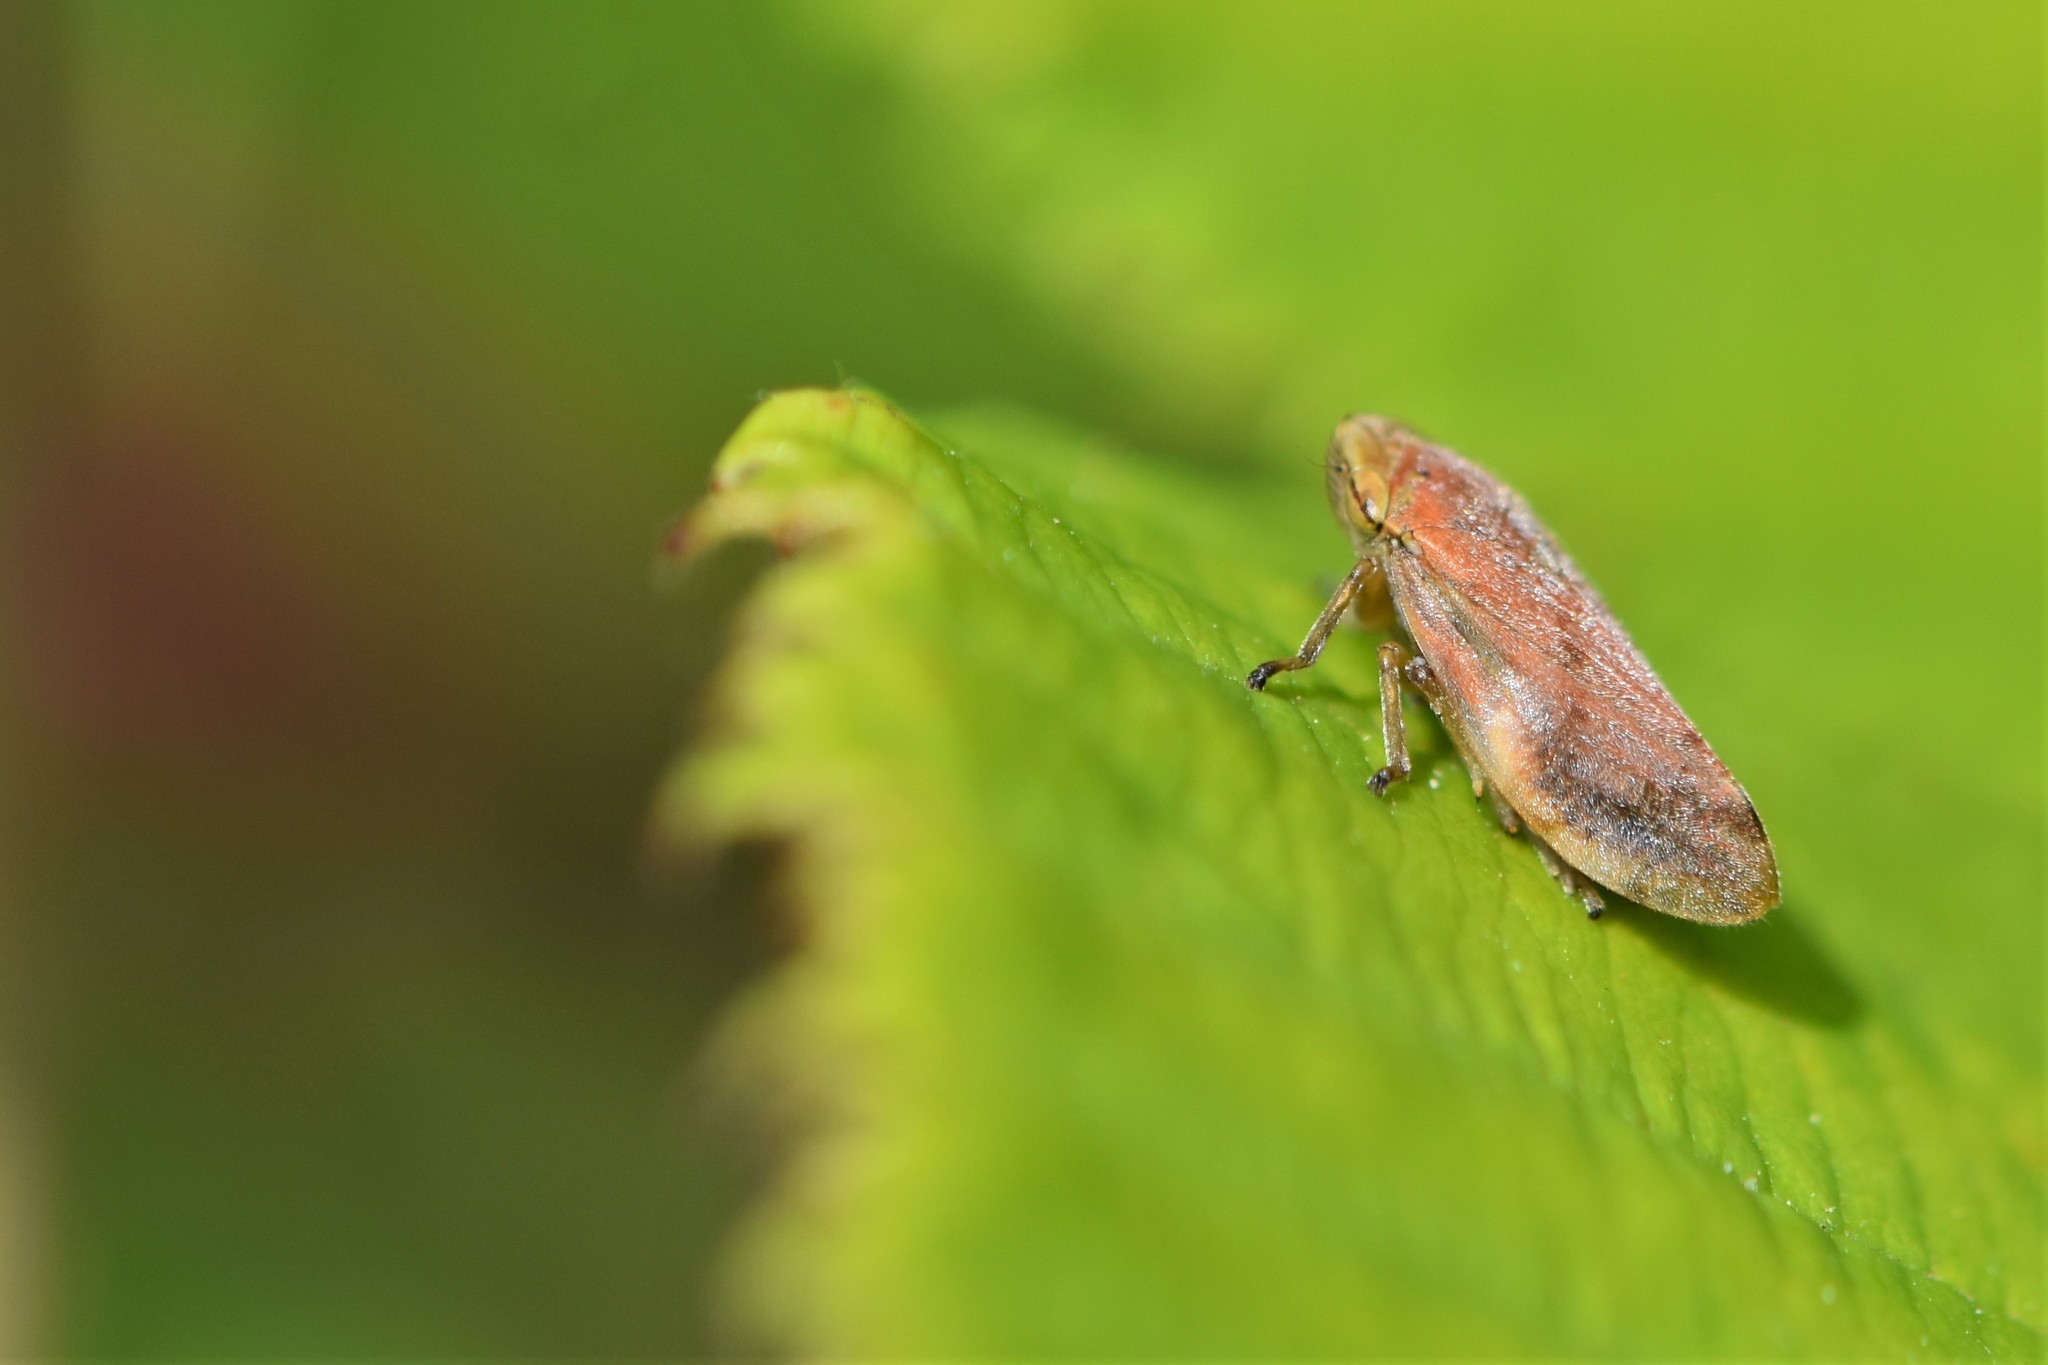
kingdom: Animalia
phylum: Arthropoda
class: Insecta
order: Hemiptera
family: Aphrophoridae
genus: Philaenus
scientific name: Philaenus spumarius
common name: Meadow spittlebug
